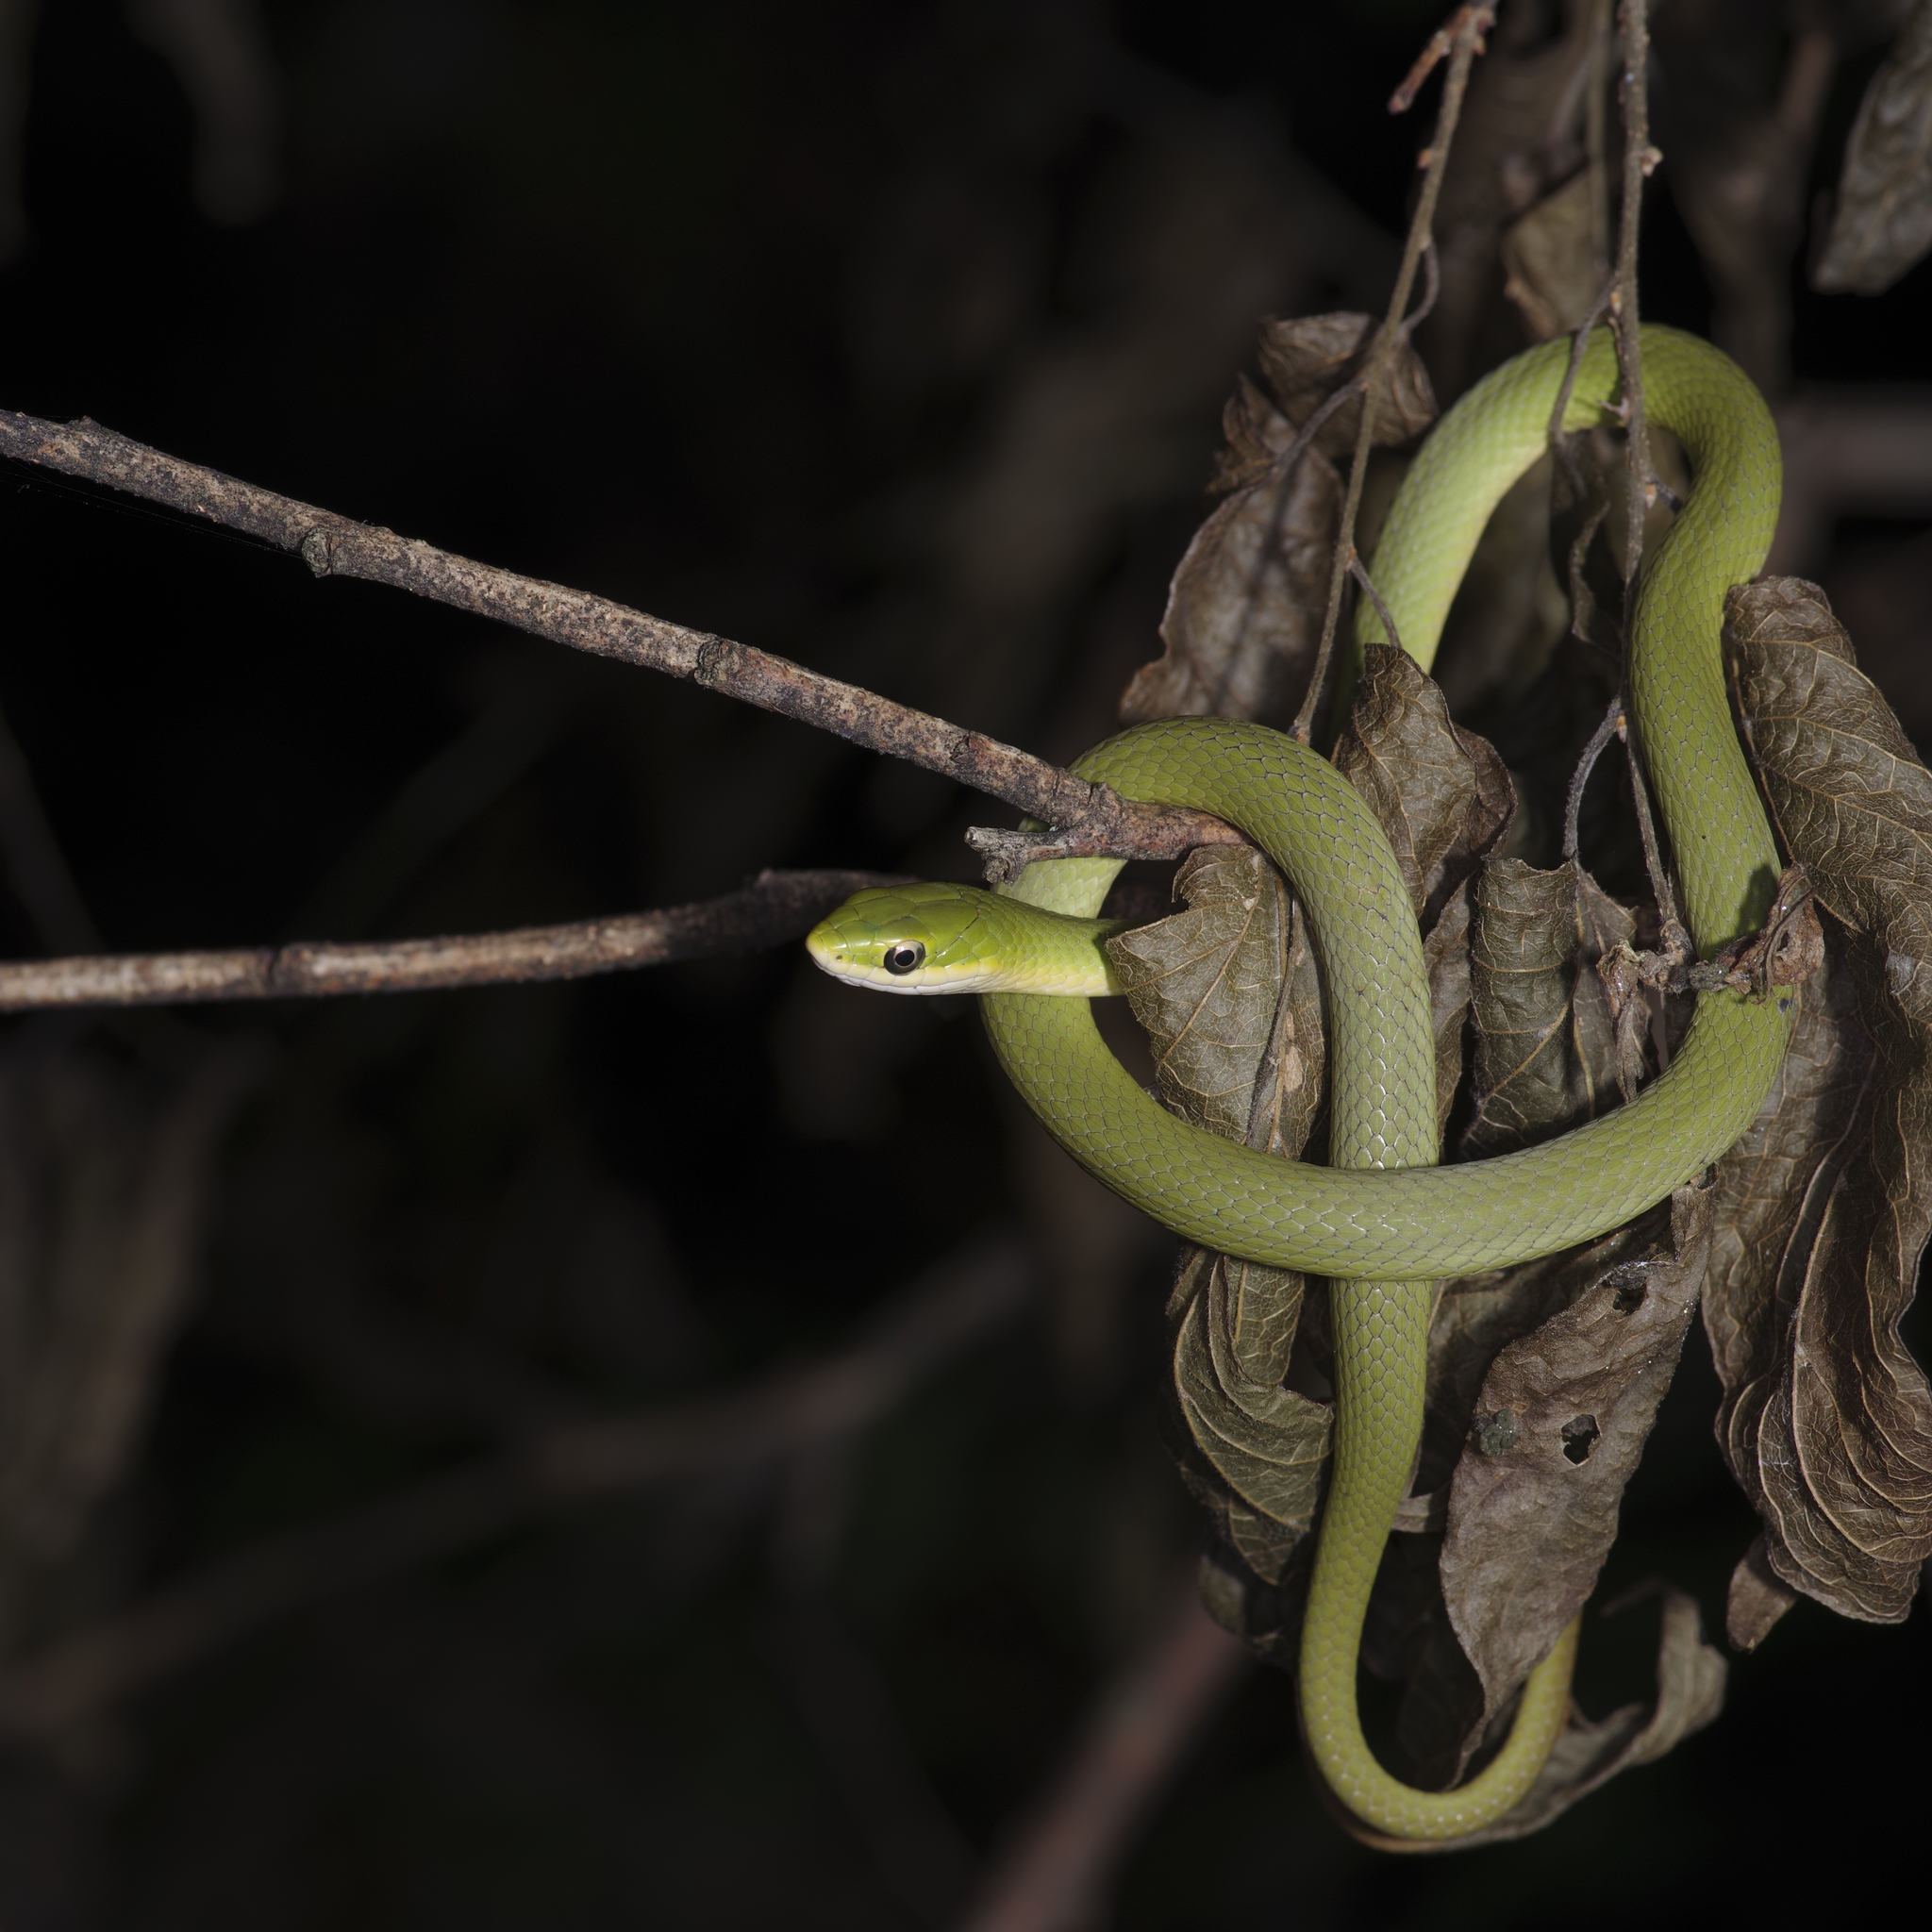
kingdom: Animalia
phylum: Chordata
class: Squamata
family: Colubridae
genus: Opheodrys
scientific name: Opheodrys aestivus
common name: Rough greensnake
